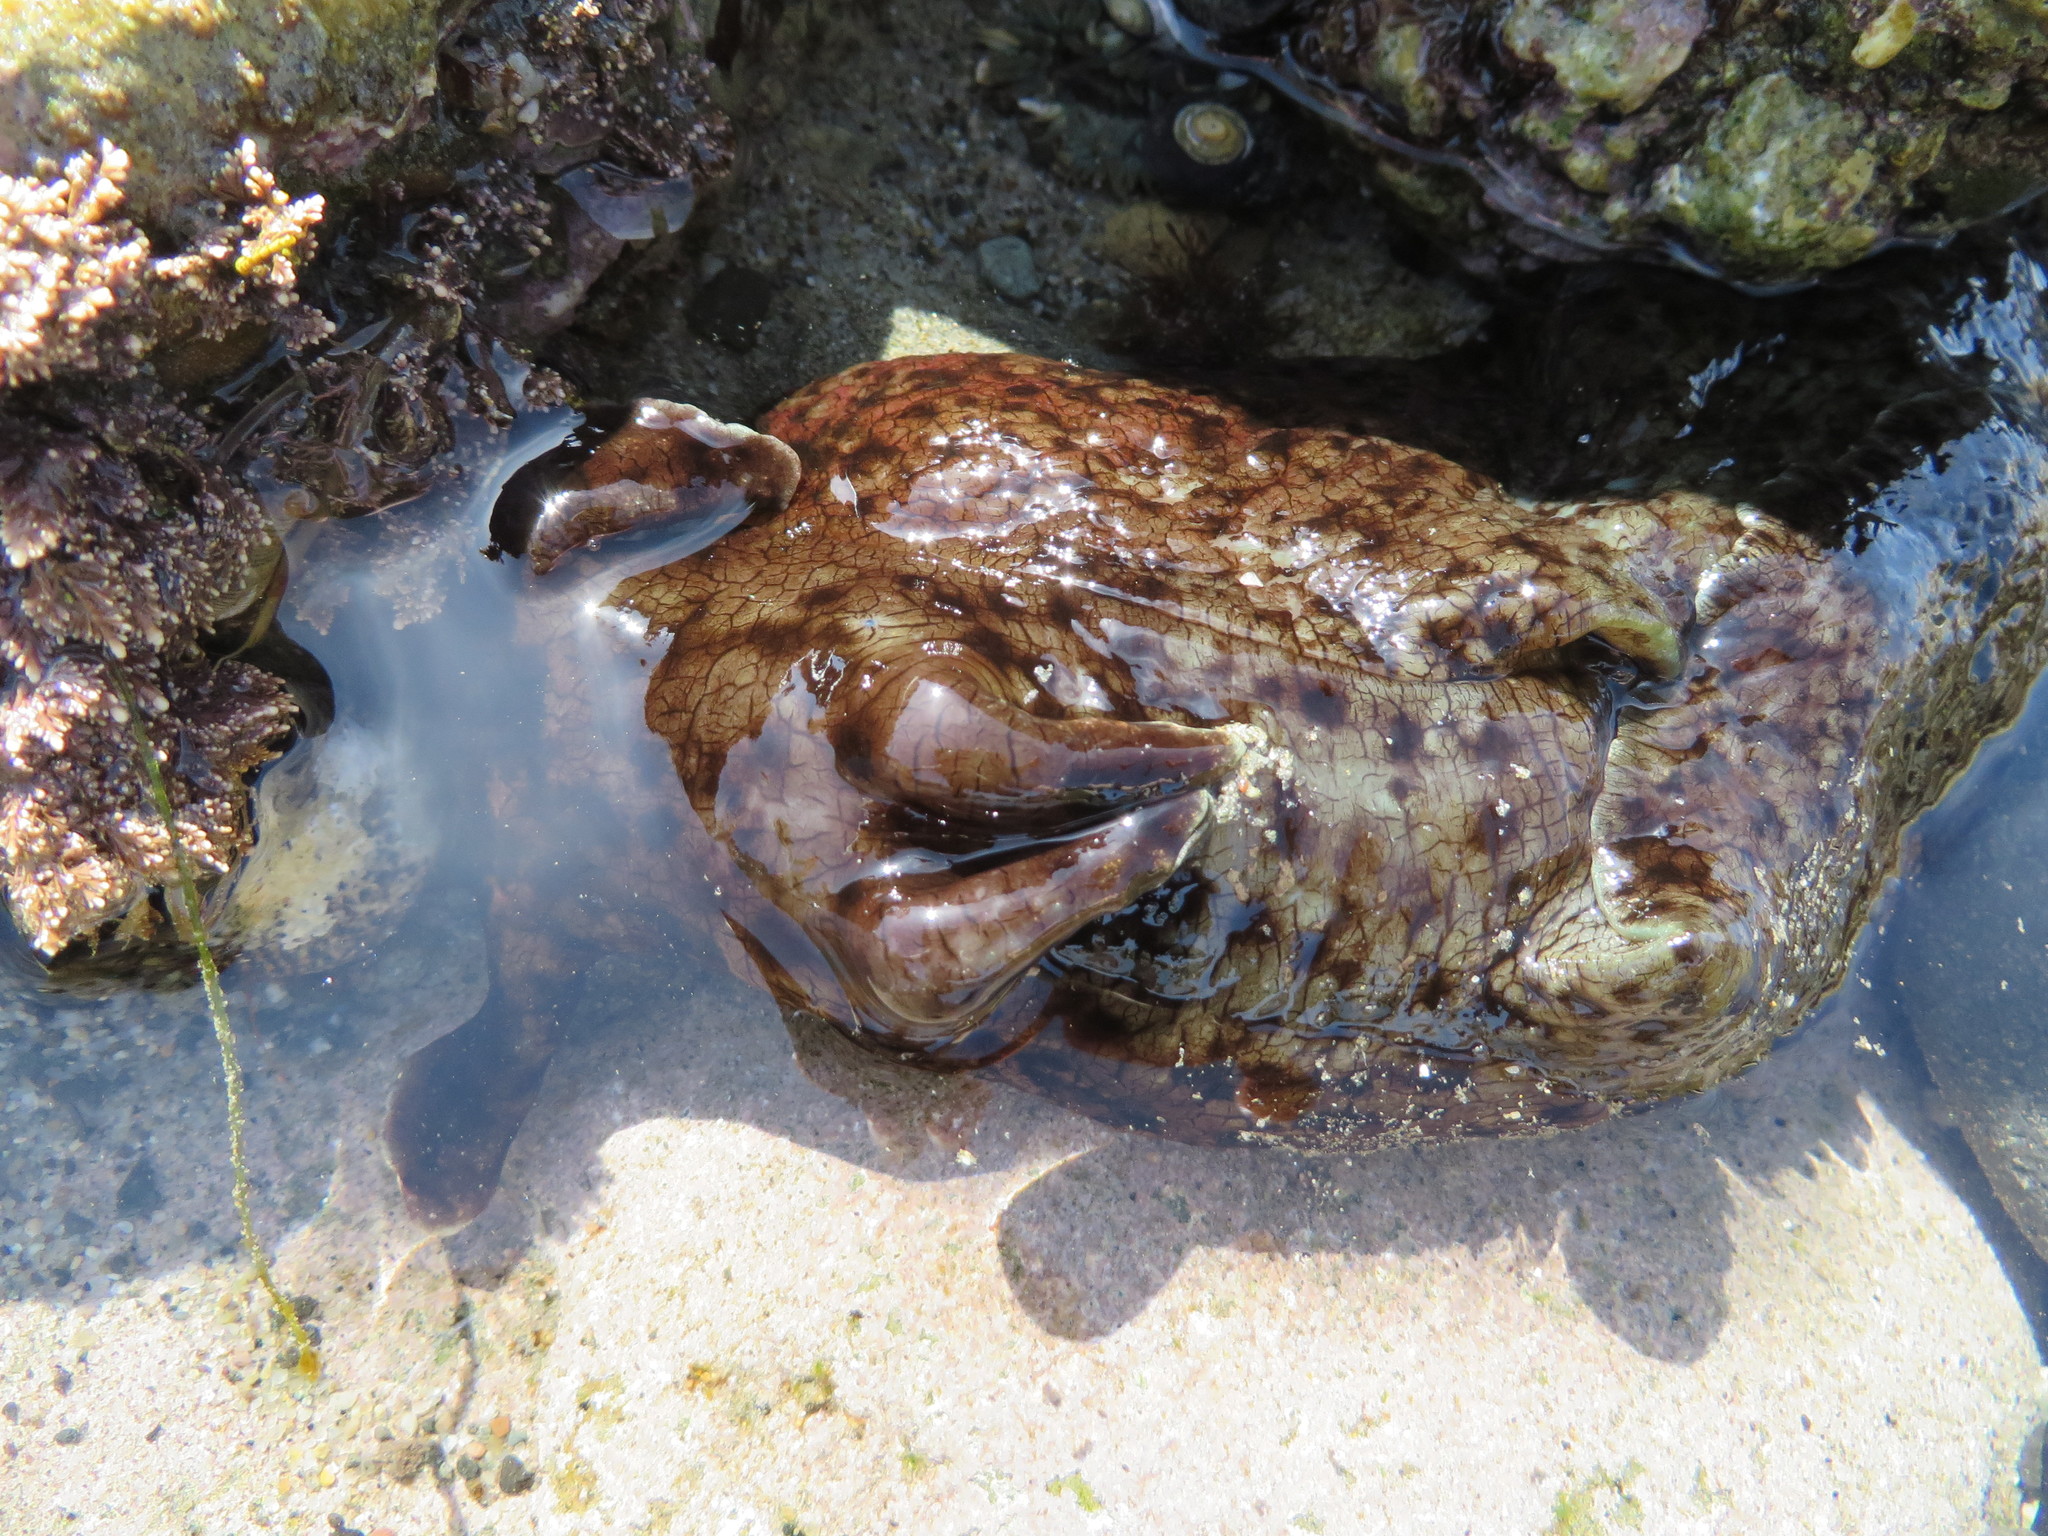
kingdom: Animalia
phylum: Mollusca
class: Gastropoda
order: Aplysiida
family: Aplysiidae
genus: Aplysia
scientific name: Aplysia californica
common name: California seahare
